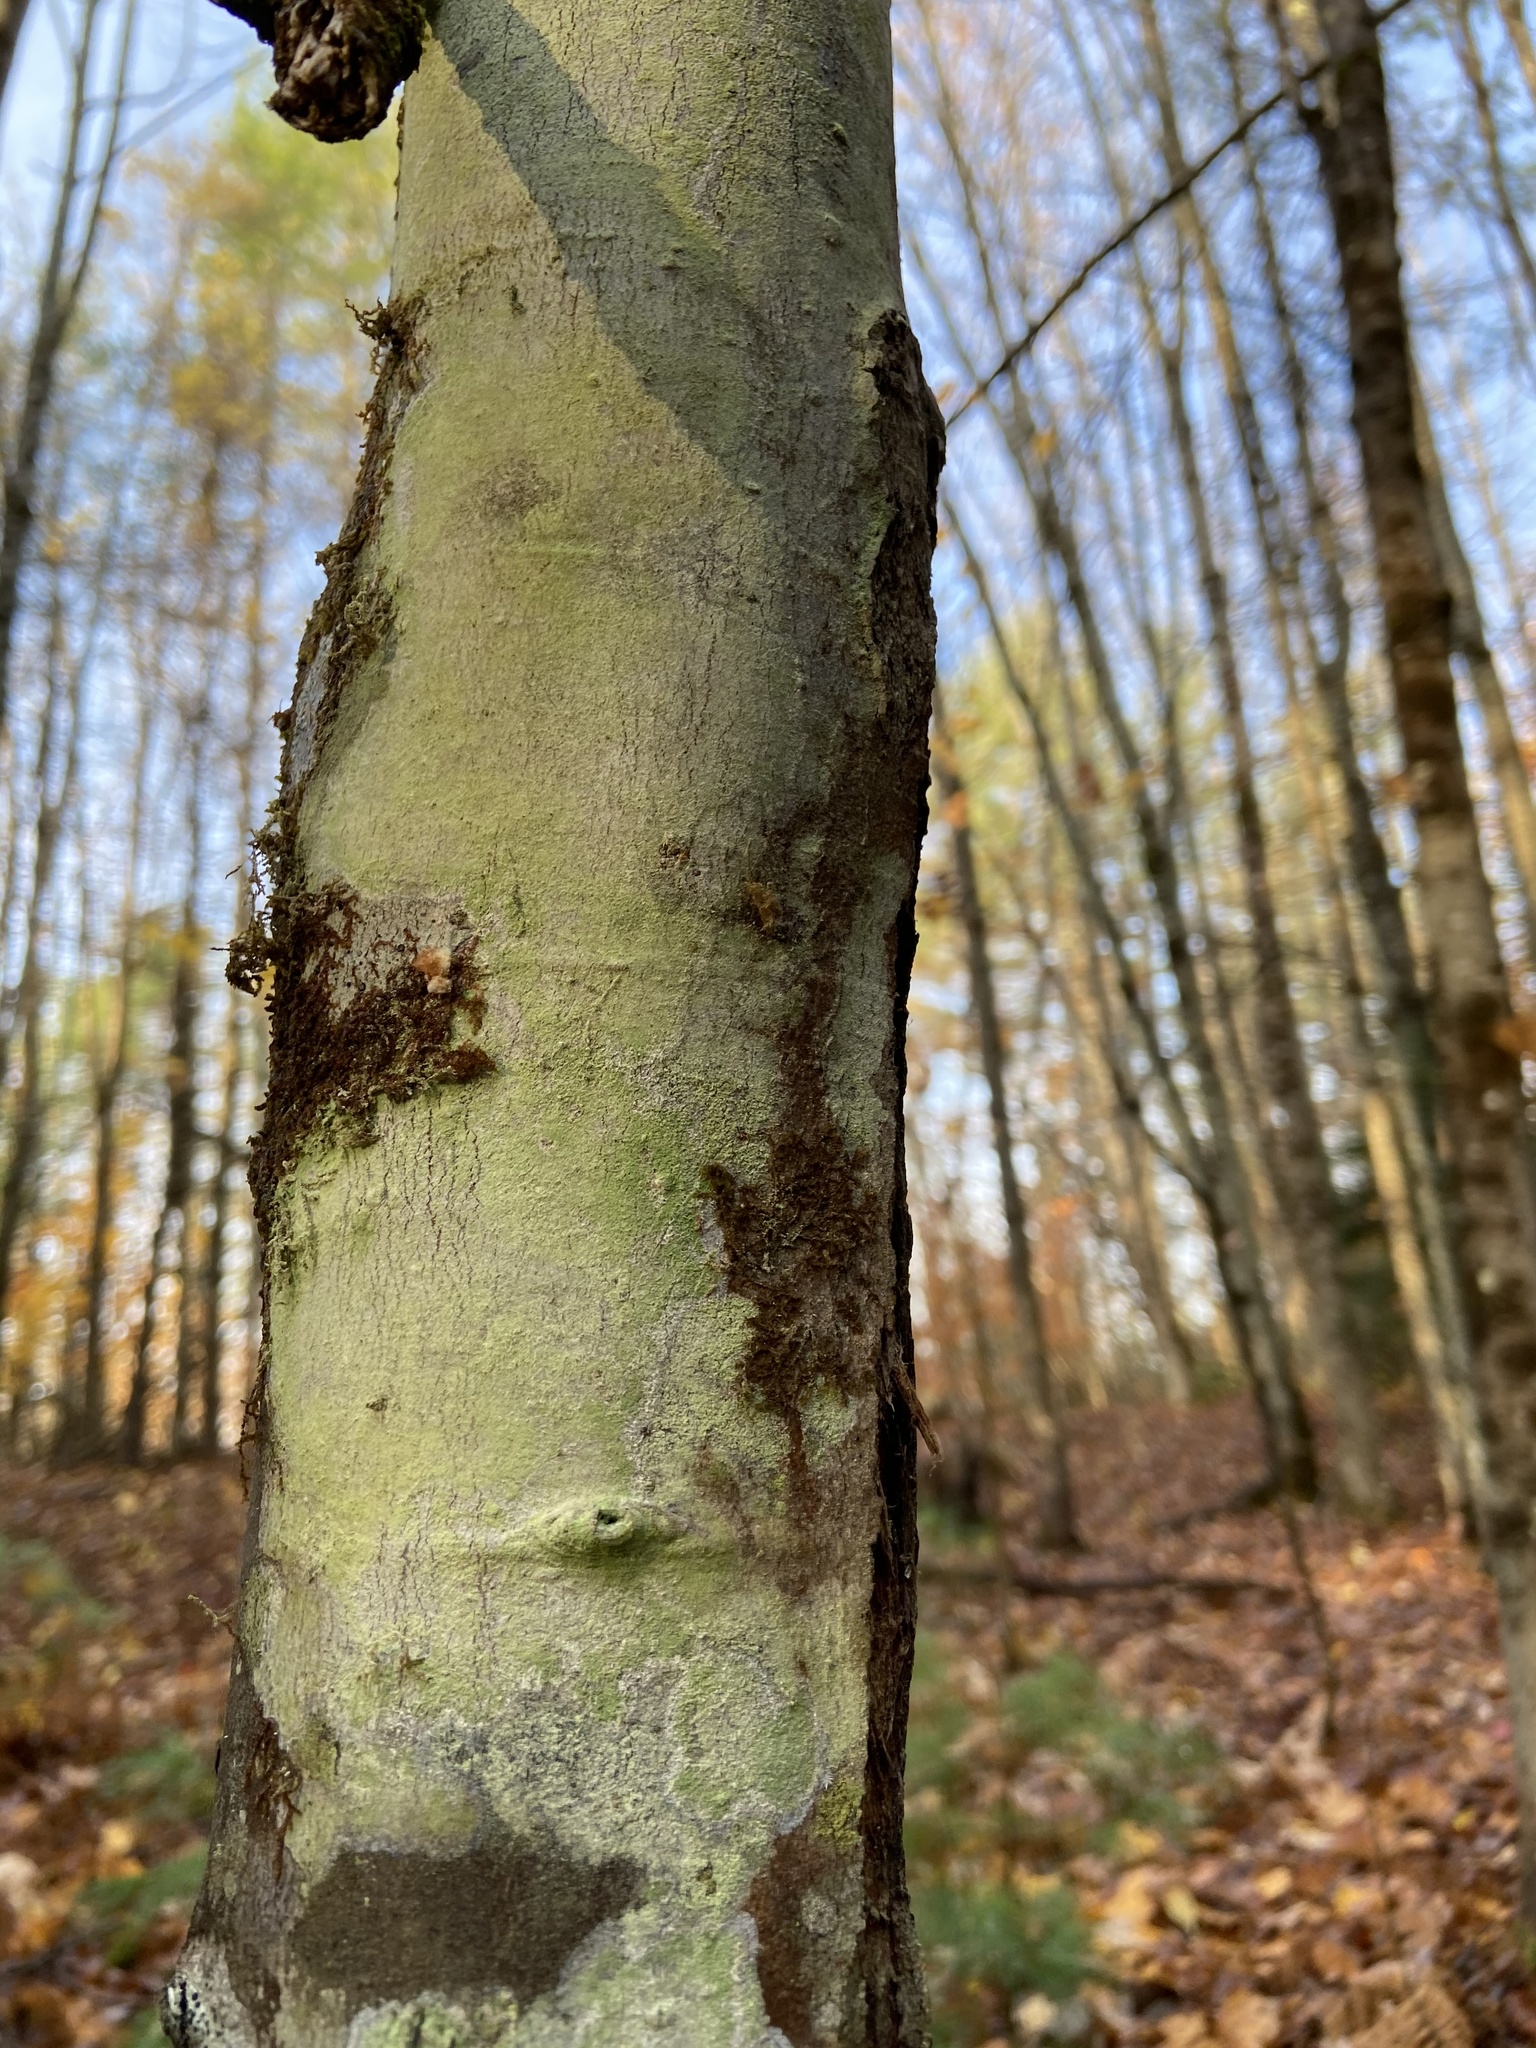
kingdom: Fungi
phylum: Ascomycota
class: Lecanoromycetes
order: Pertusariales
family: Pertusariaceae
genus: Verseghya
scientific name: Verseghya thysanophora
